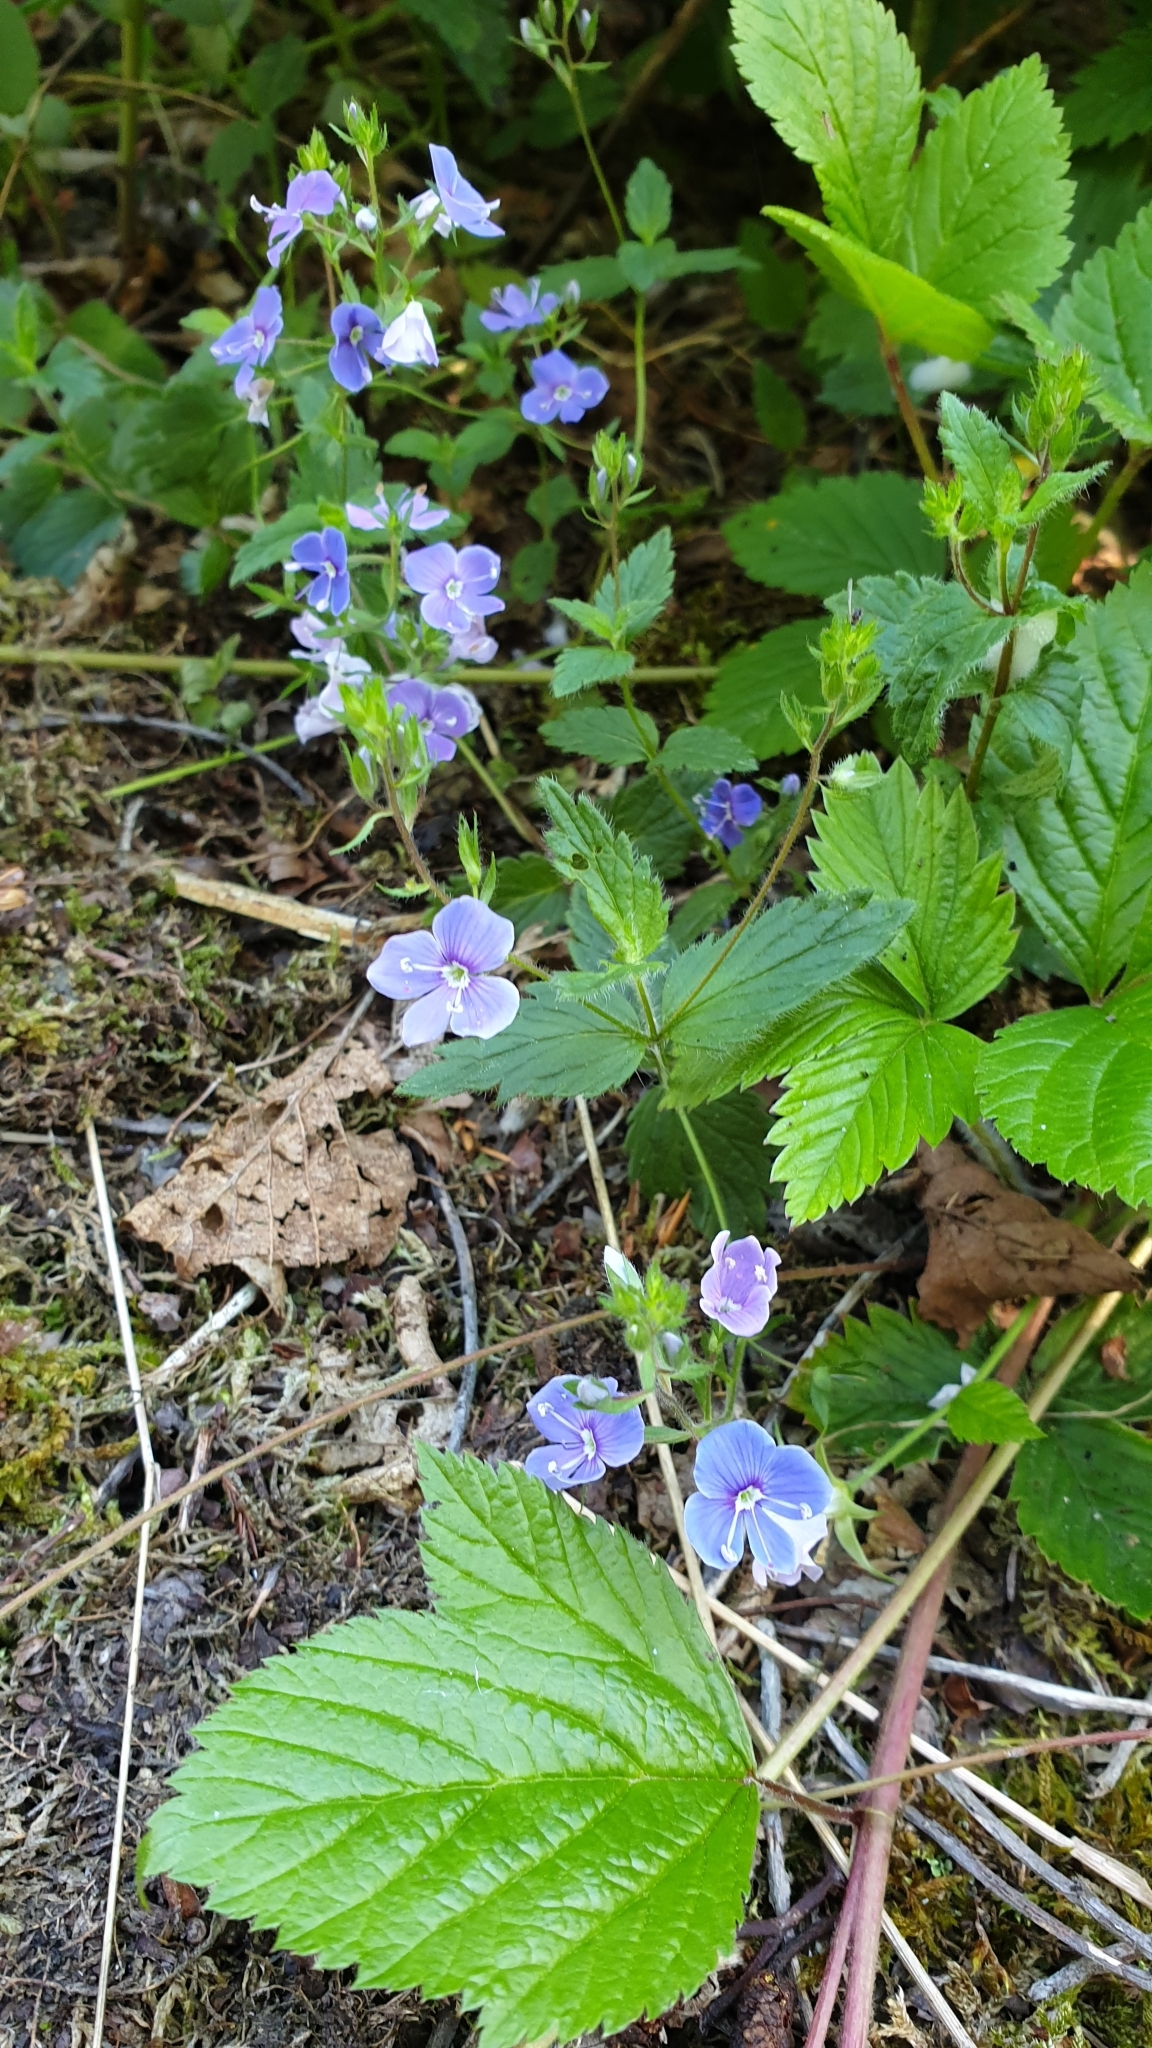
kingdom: Plantae
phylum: Tracheophyta
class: Magnoliopsida
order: Lamiales
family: Plantaginaceae
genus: Veronica
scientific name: Veronica chamaedrys
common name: Germander speedwell
